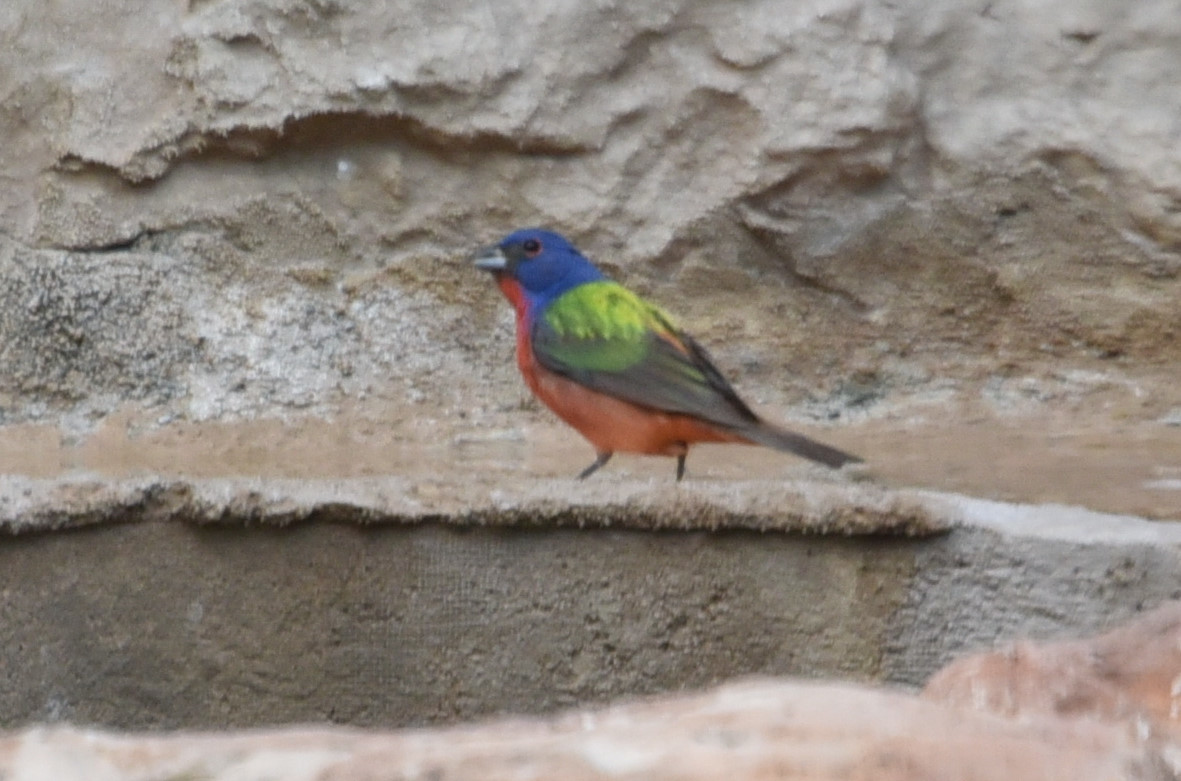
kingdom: Animalia
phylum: Chordata
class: Aves
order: Passeriformes
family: Cardinalidae
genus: Passerina
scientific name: Passerina ciris
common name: Painted bunting
